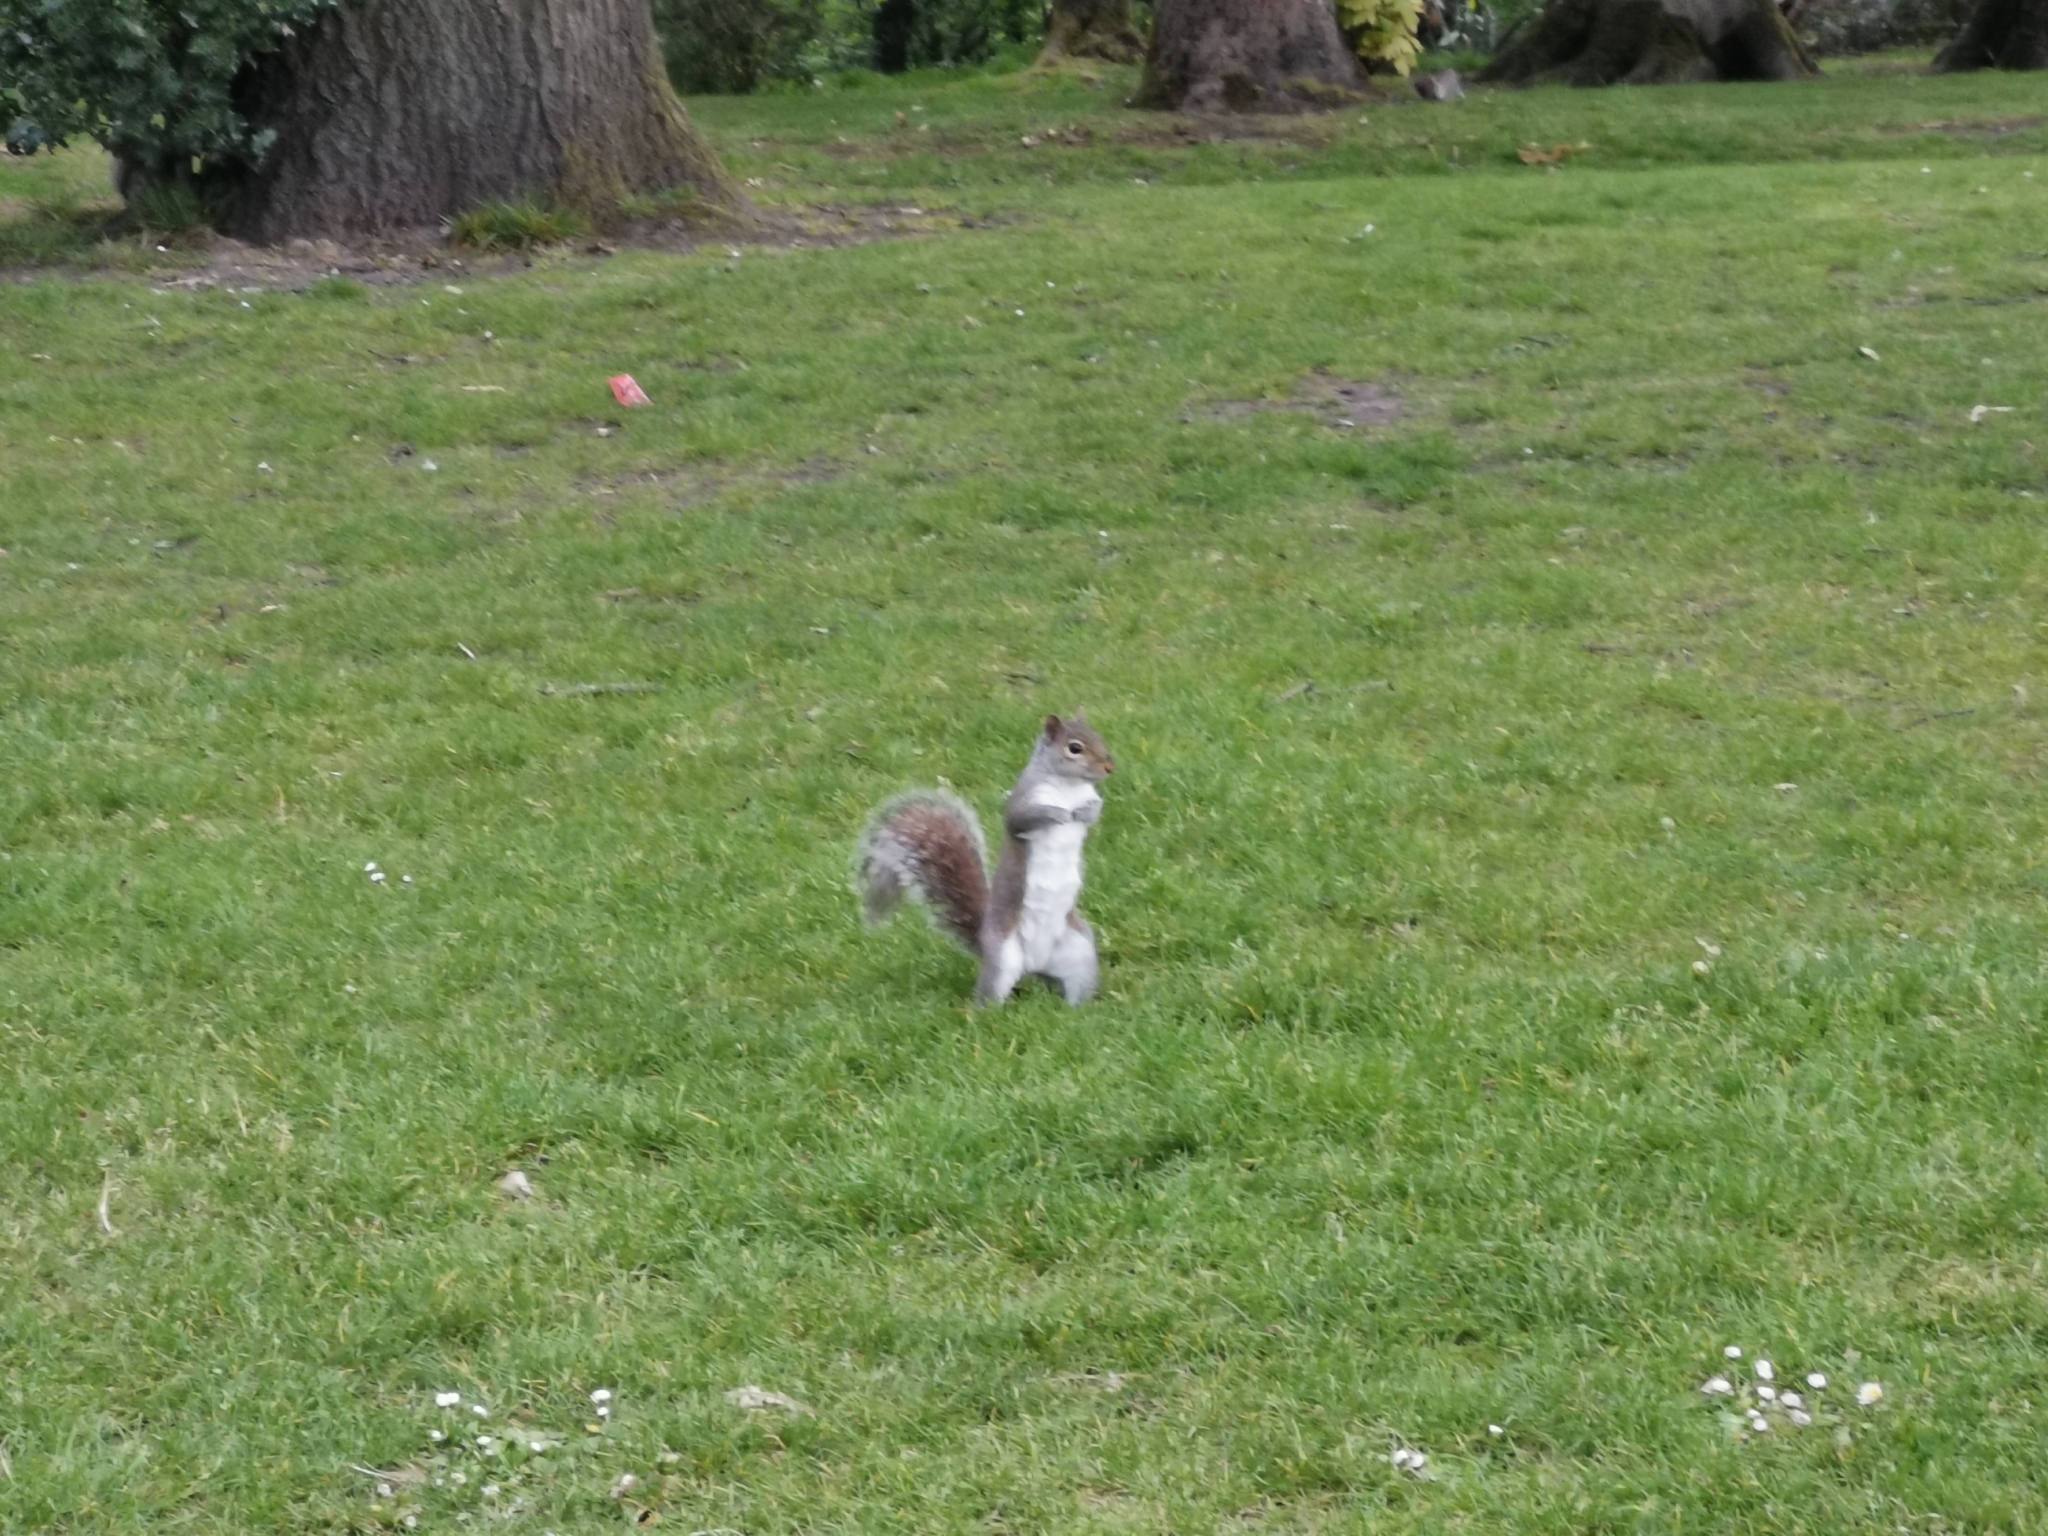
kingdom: Animalia
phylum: Chordata
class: Mammalia
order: Rodentia
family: Sciuridae
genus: Sciurus
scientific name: Sciurus carolinensis
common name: Eastern gray squirrel
